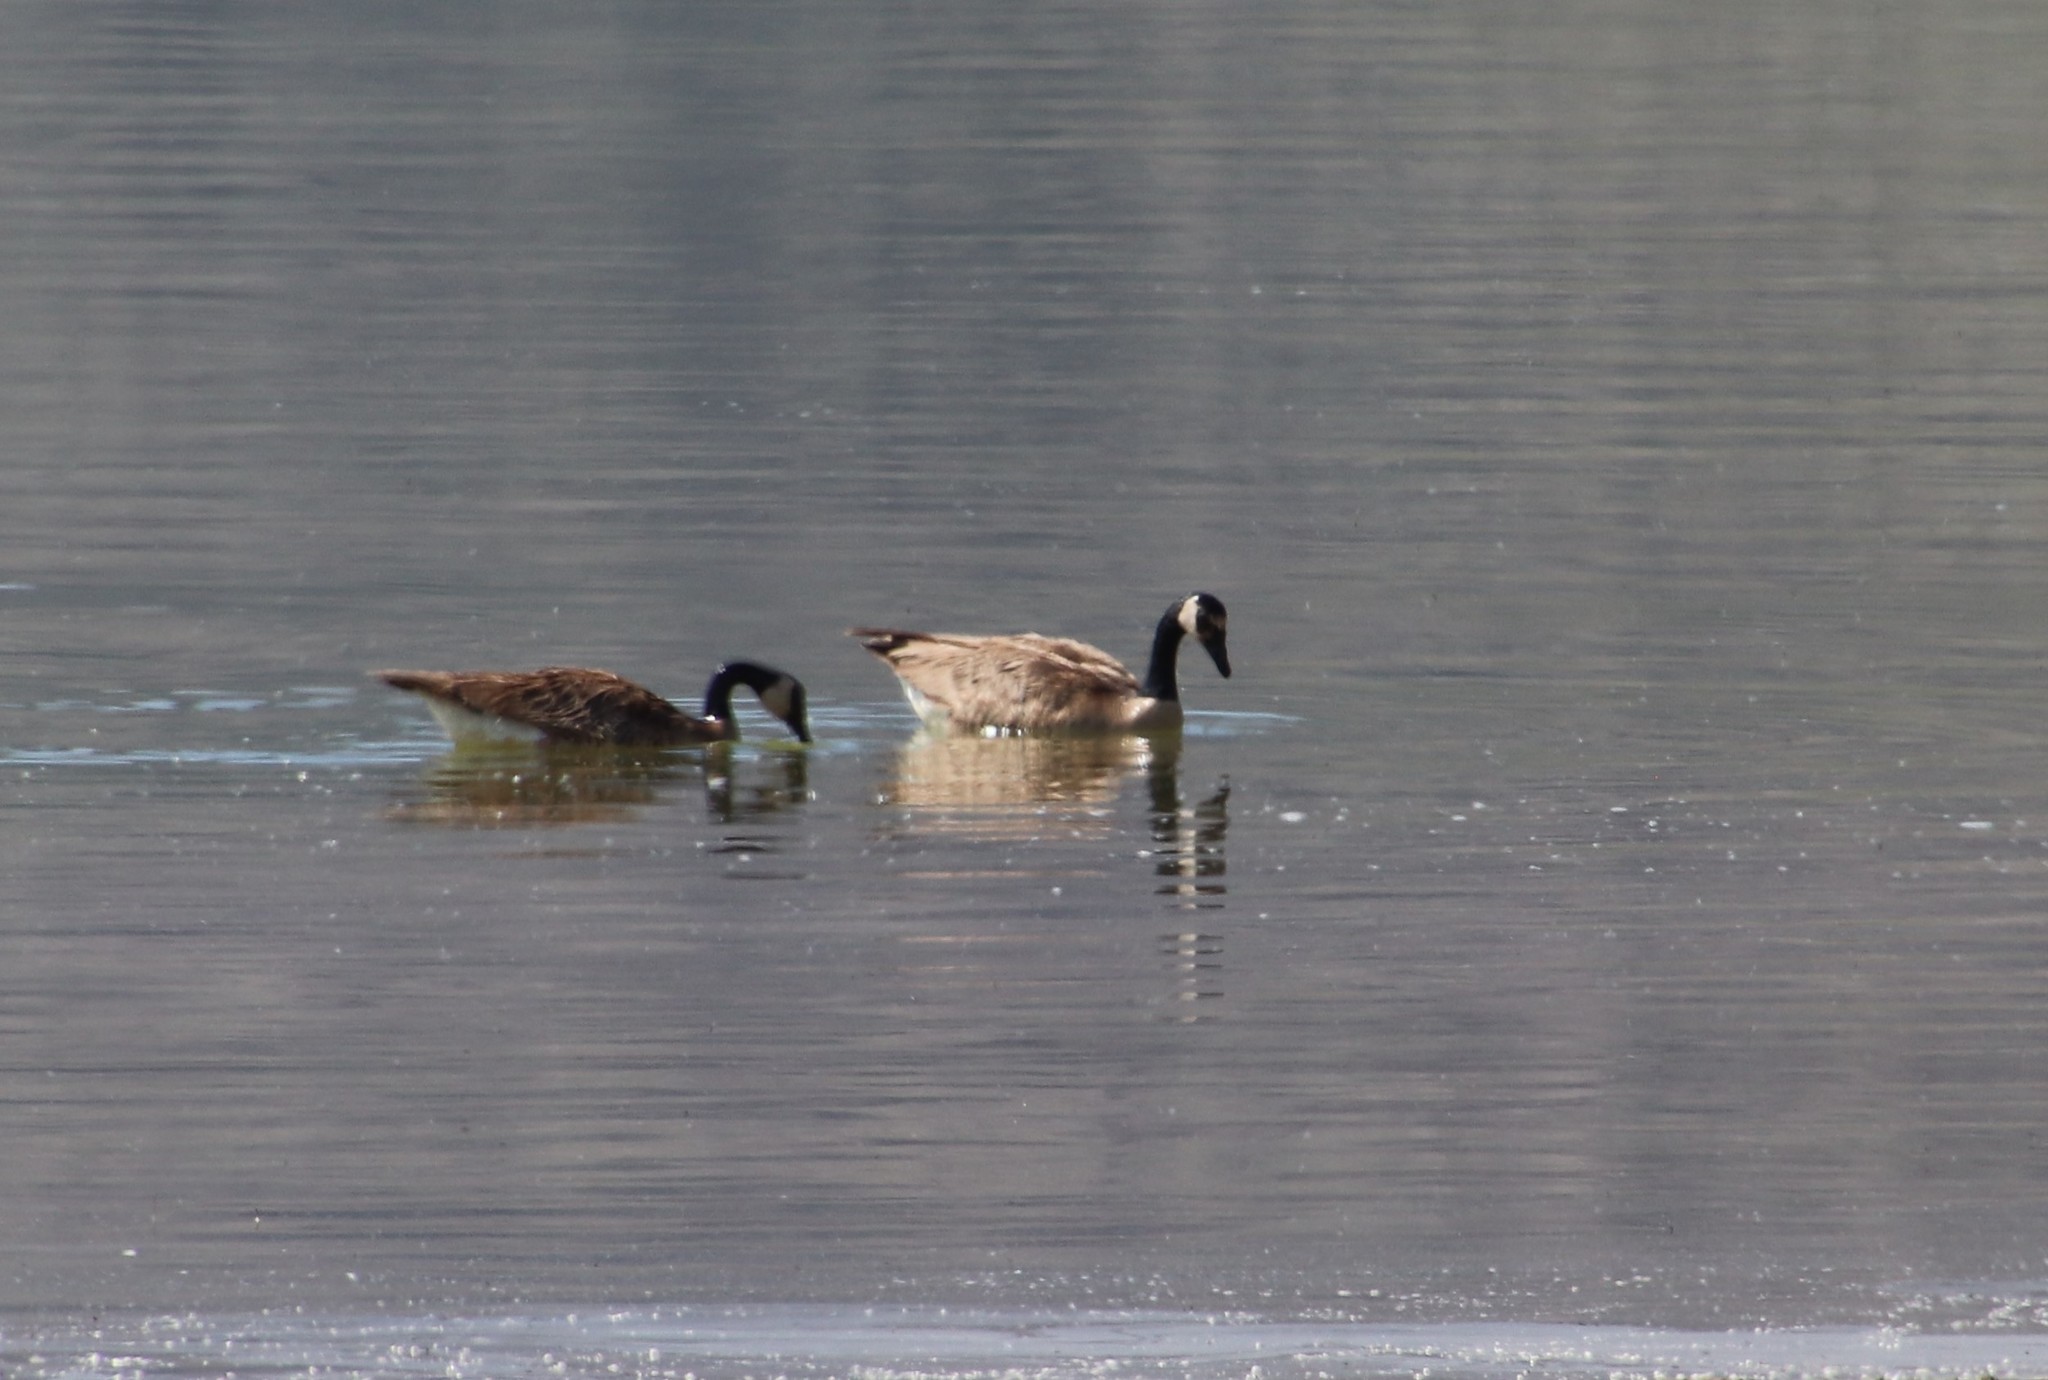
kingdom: Animalia
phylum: Chordata
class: Aves
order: Anseriformes
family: Anatidae
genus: Branta
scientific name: Branta canadensis
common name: Canada goose
